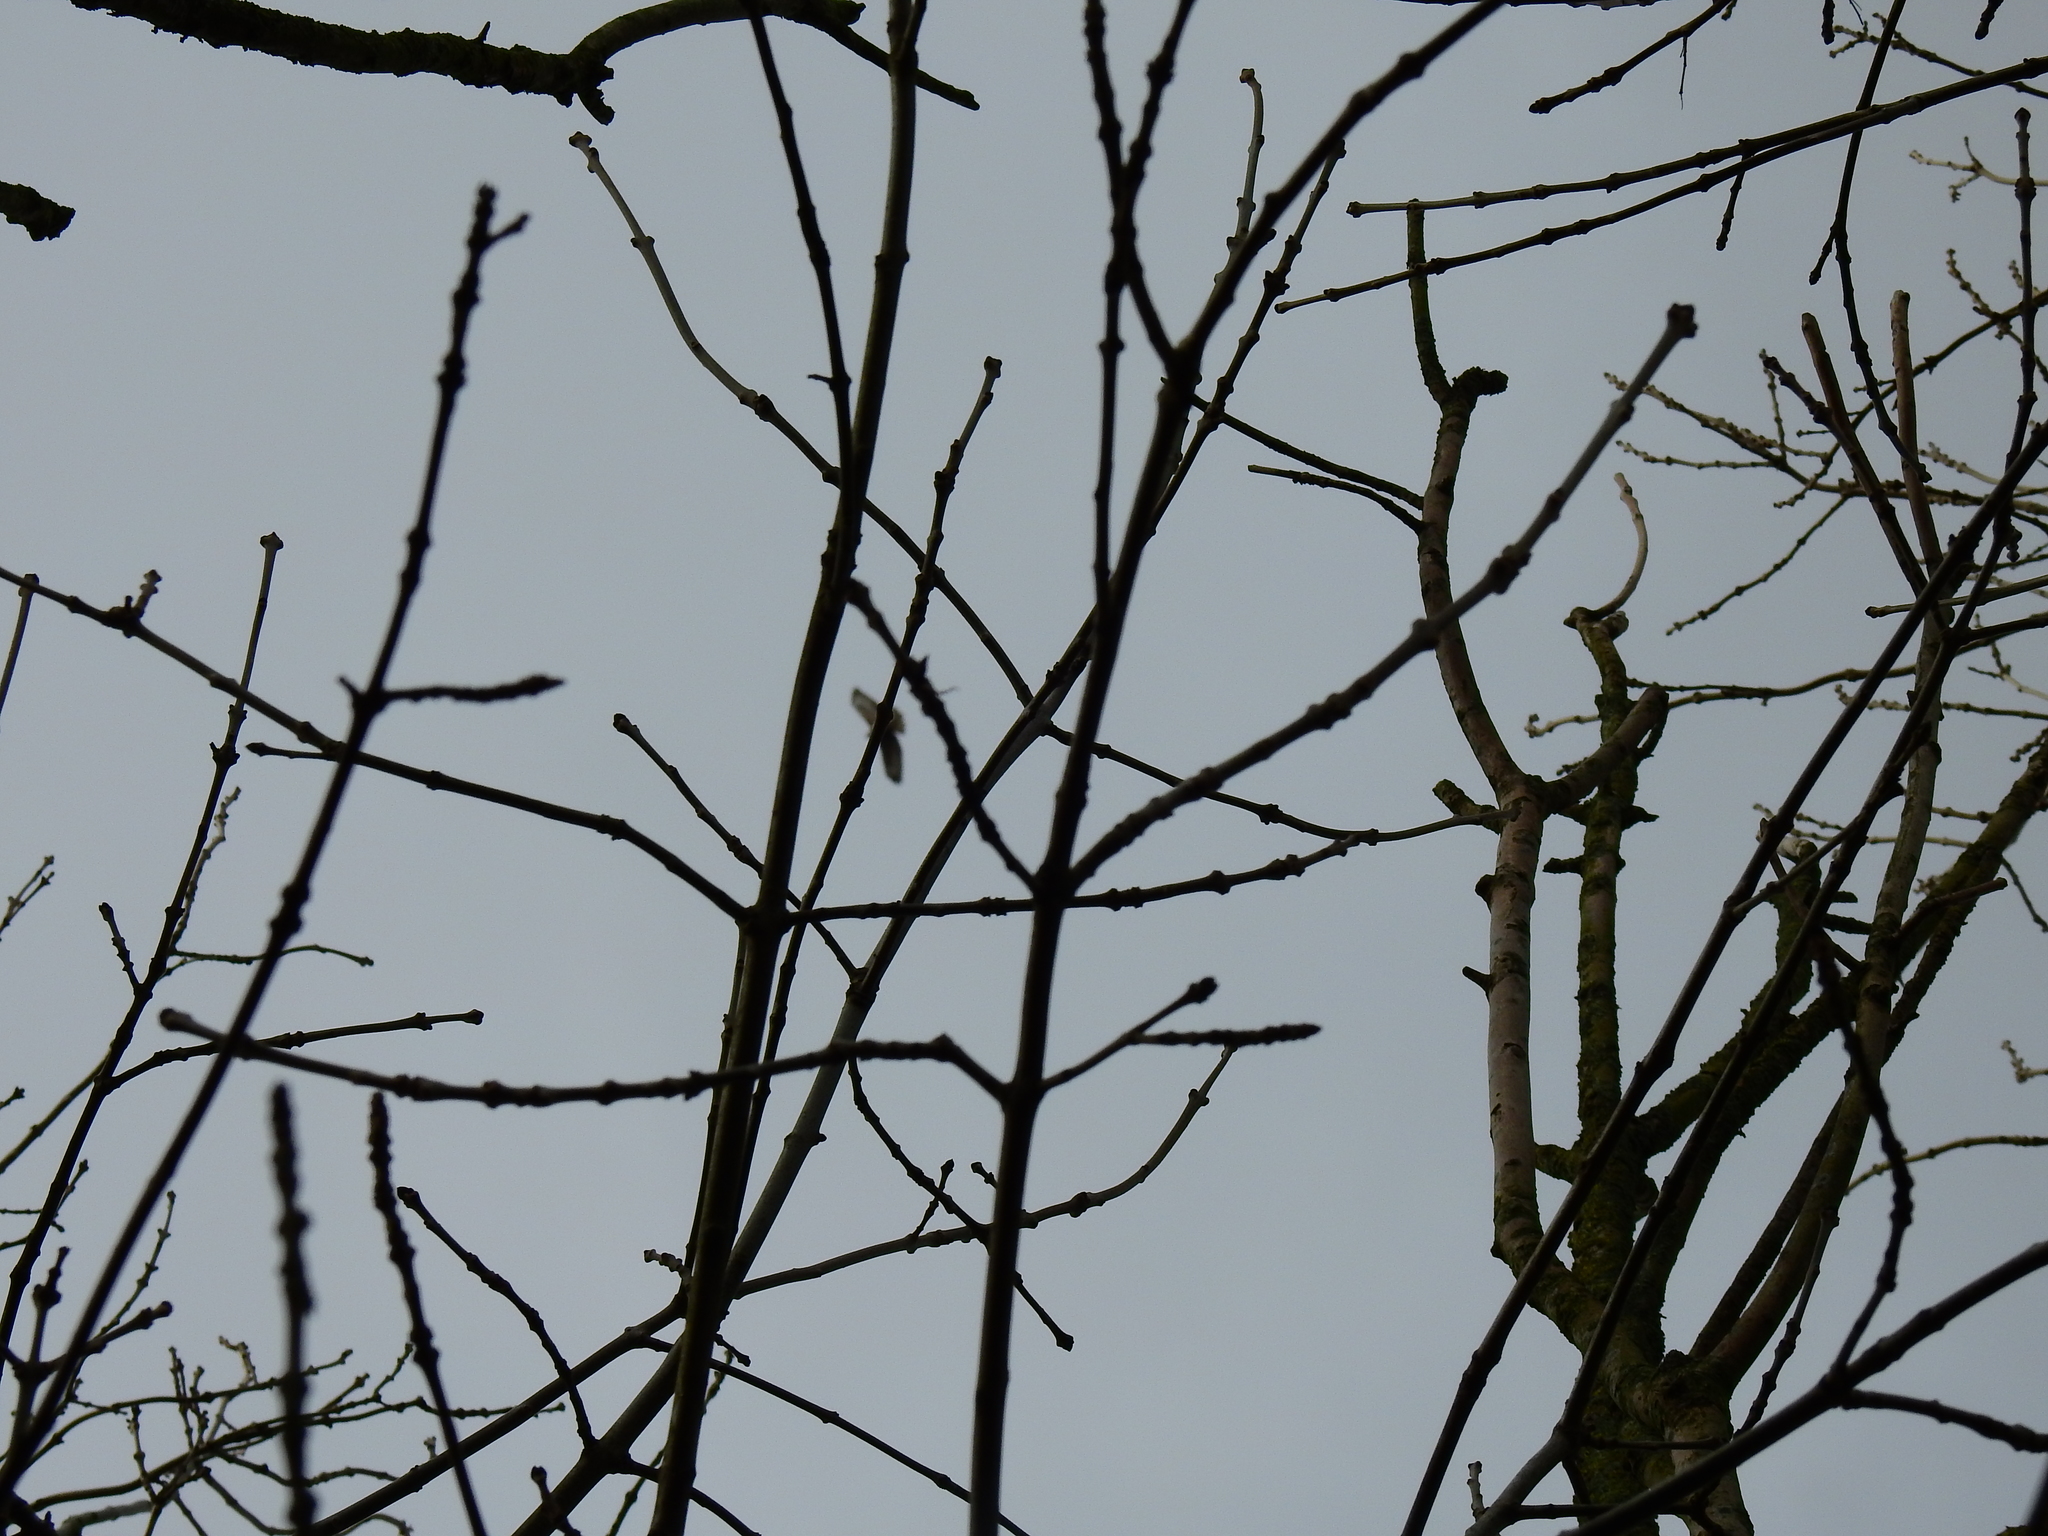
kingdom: Animalia
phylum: Chordata
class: Aves
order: Accipitriformes
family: Accipitridae
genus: Buteo
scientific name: Buteo buteo
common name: Common buzzard
